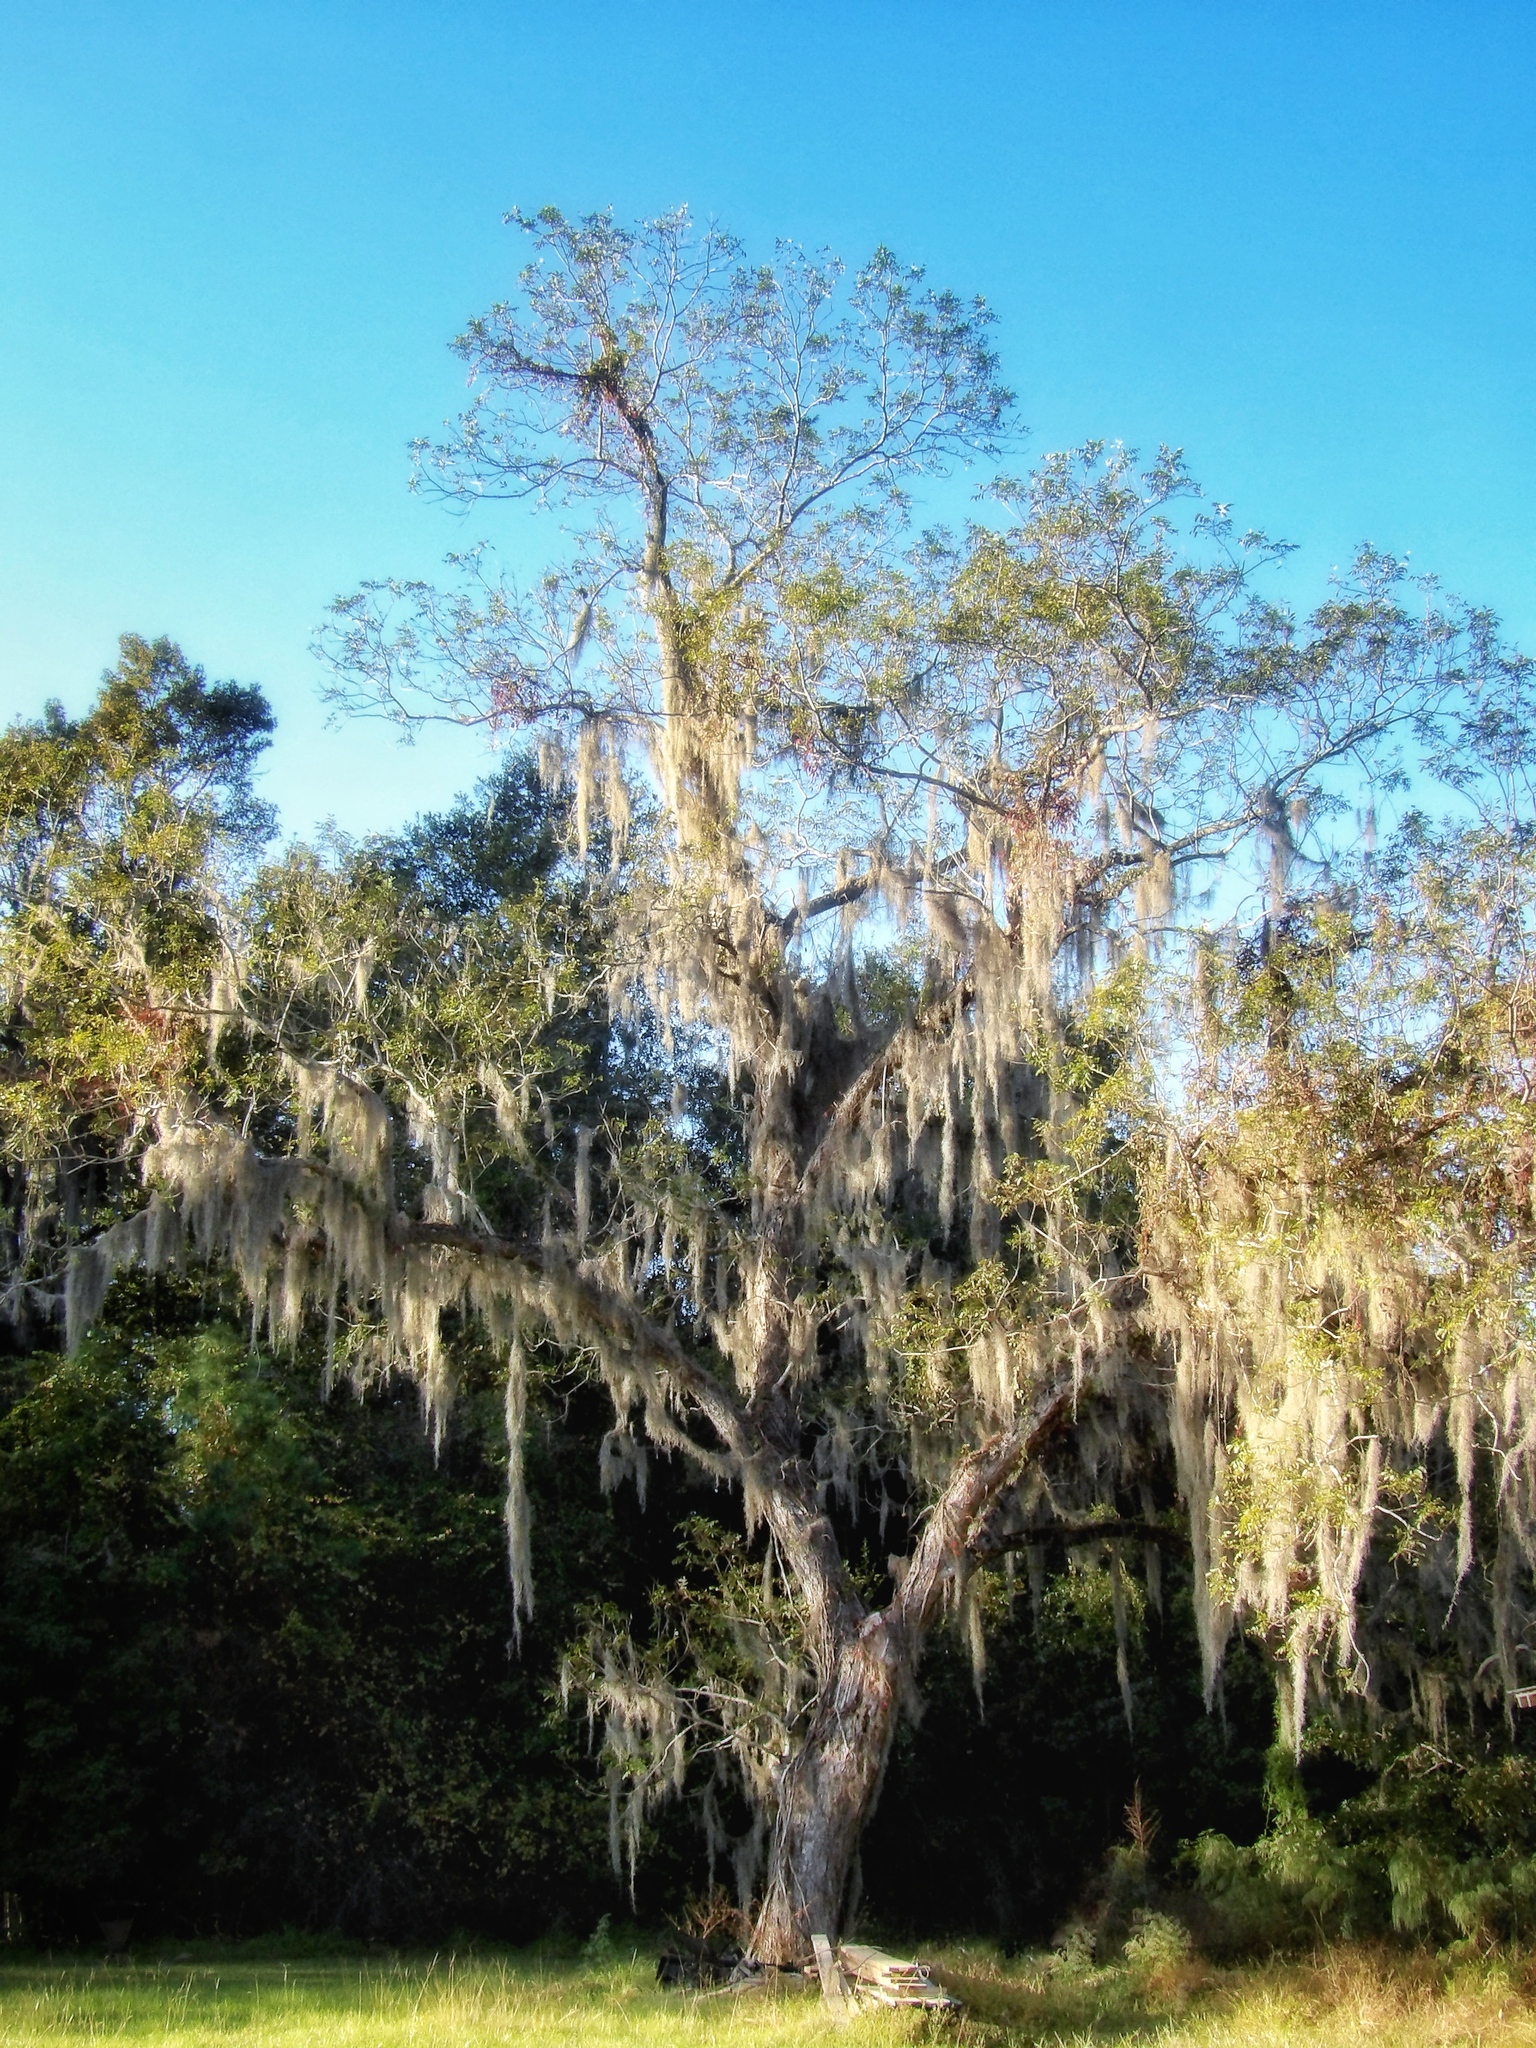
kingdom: Plantae
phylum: Tracheophyta
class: Liliopsida
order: Poales
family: Bromeliaceae
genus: Tillandsia
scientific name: Tillandsia usneoides
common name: Spanish moss
